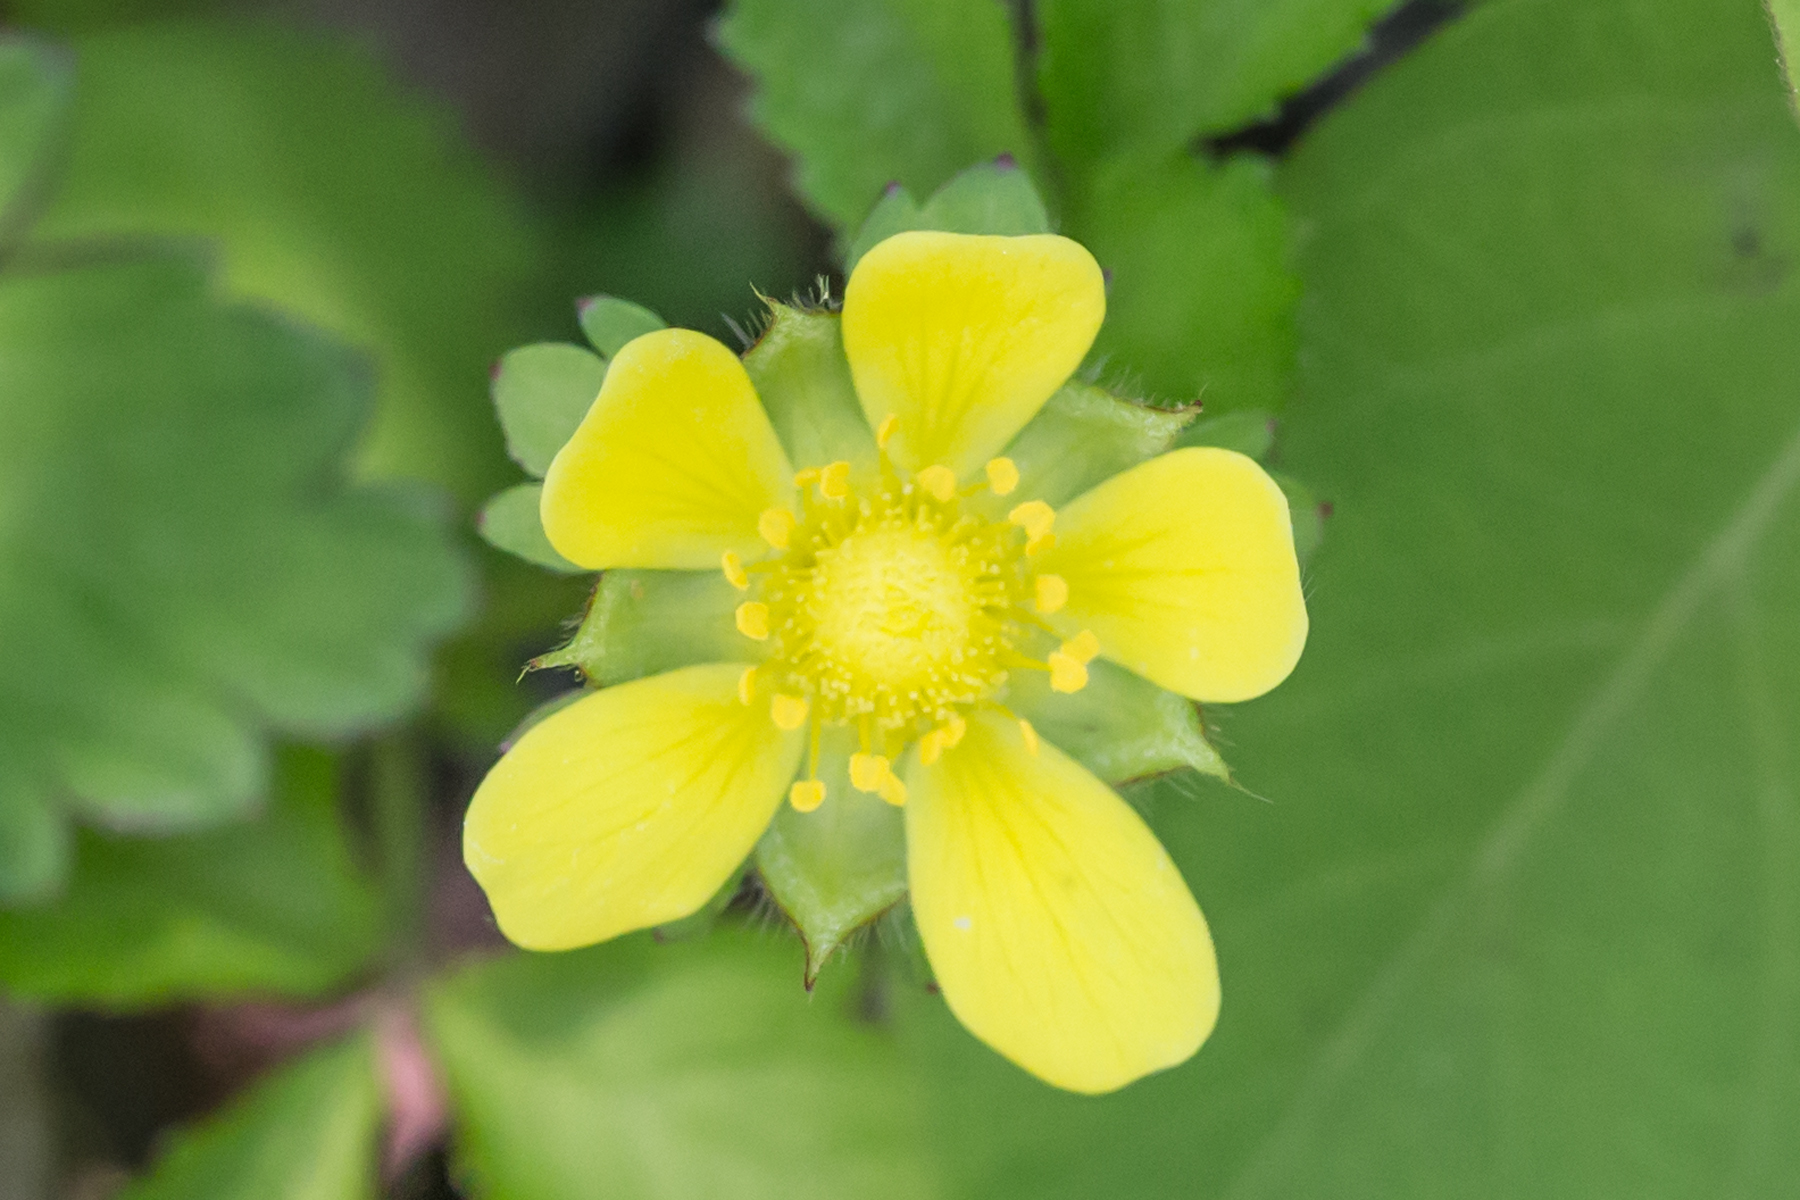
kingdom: Plantae
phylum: Tracheophyta
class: Magnoliopsida
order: Rosales
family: Rosaceae
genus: Potentilla
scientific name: Potentilla indica
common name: Yellow-flowered strawberry
